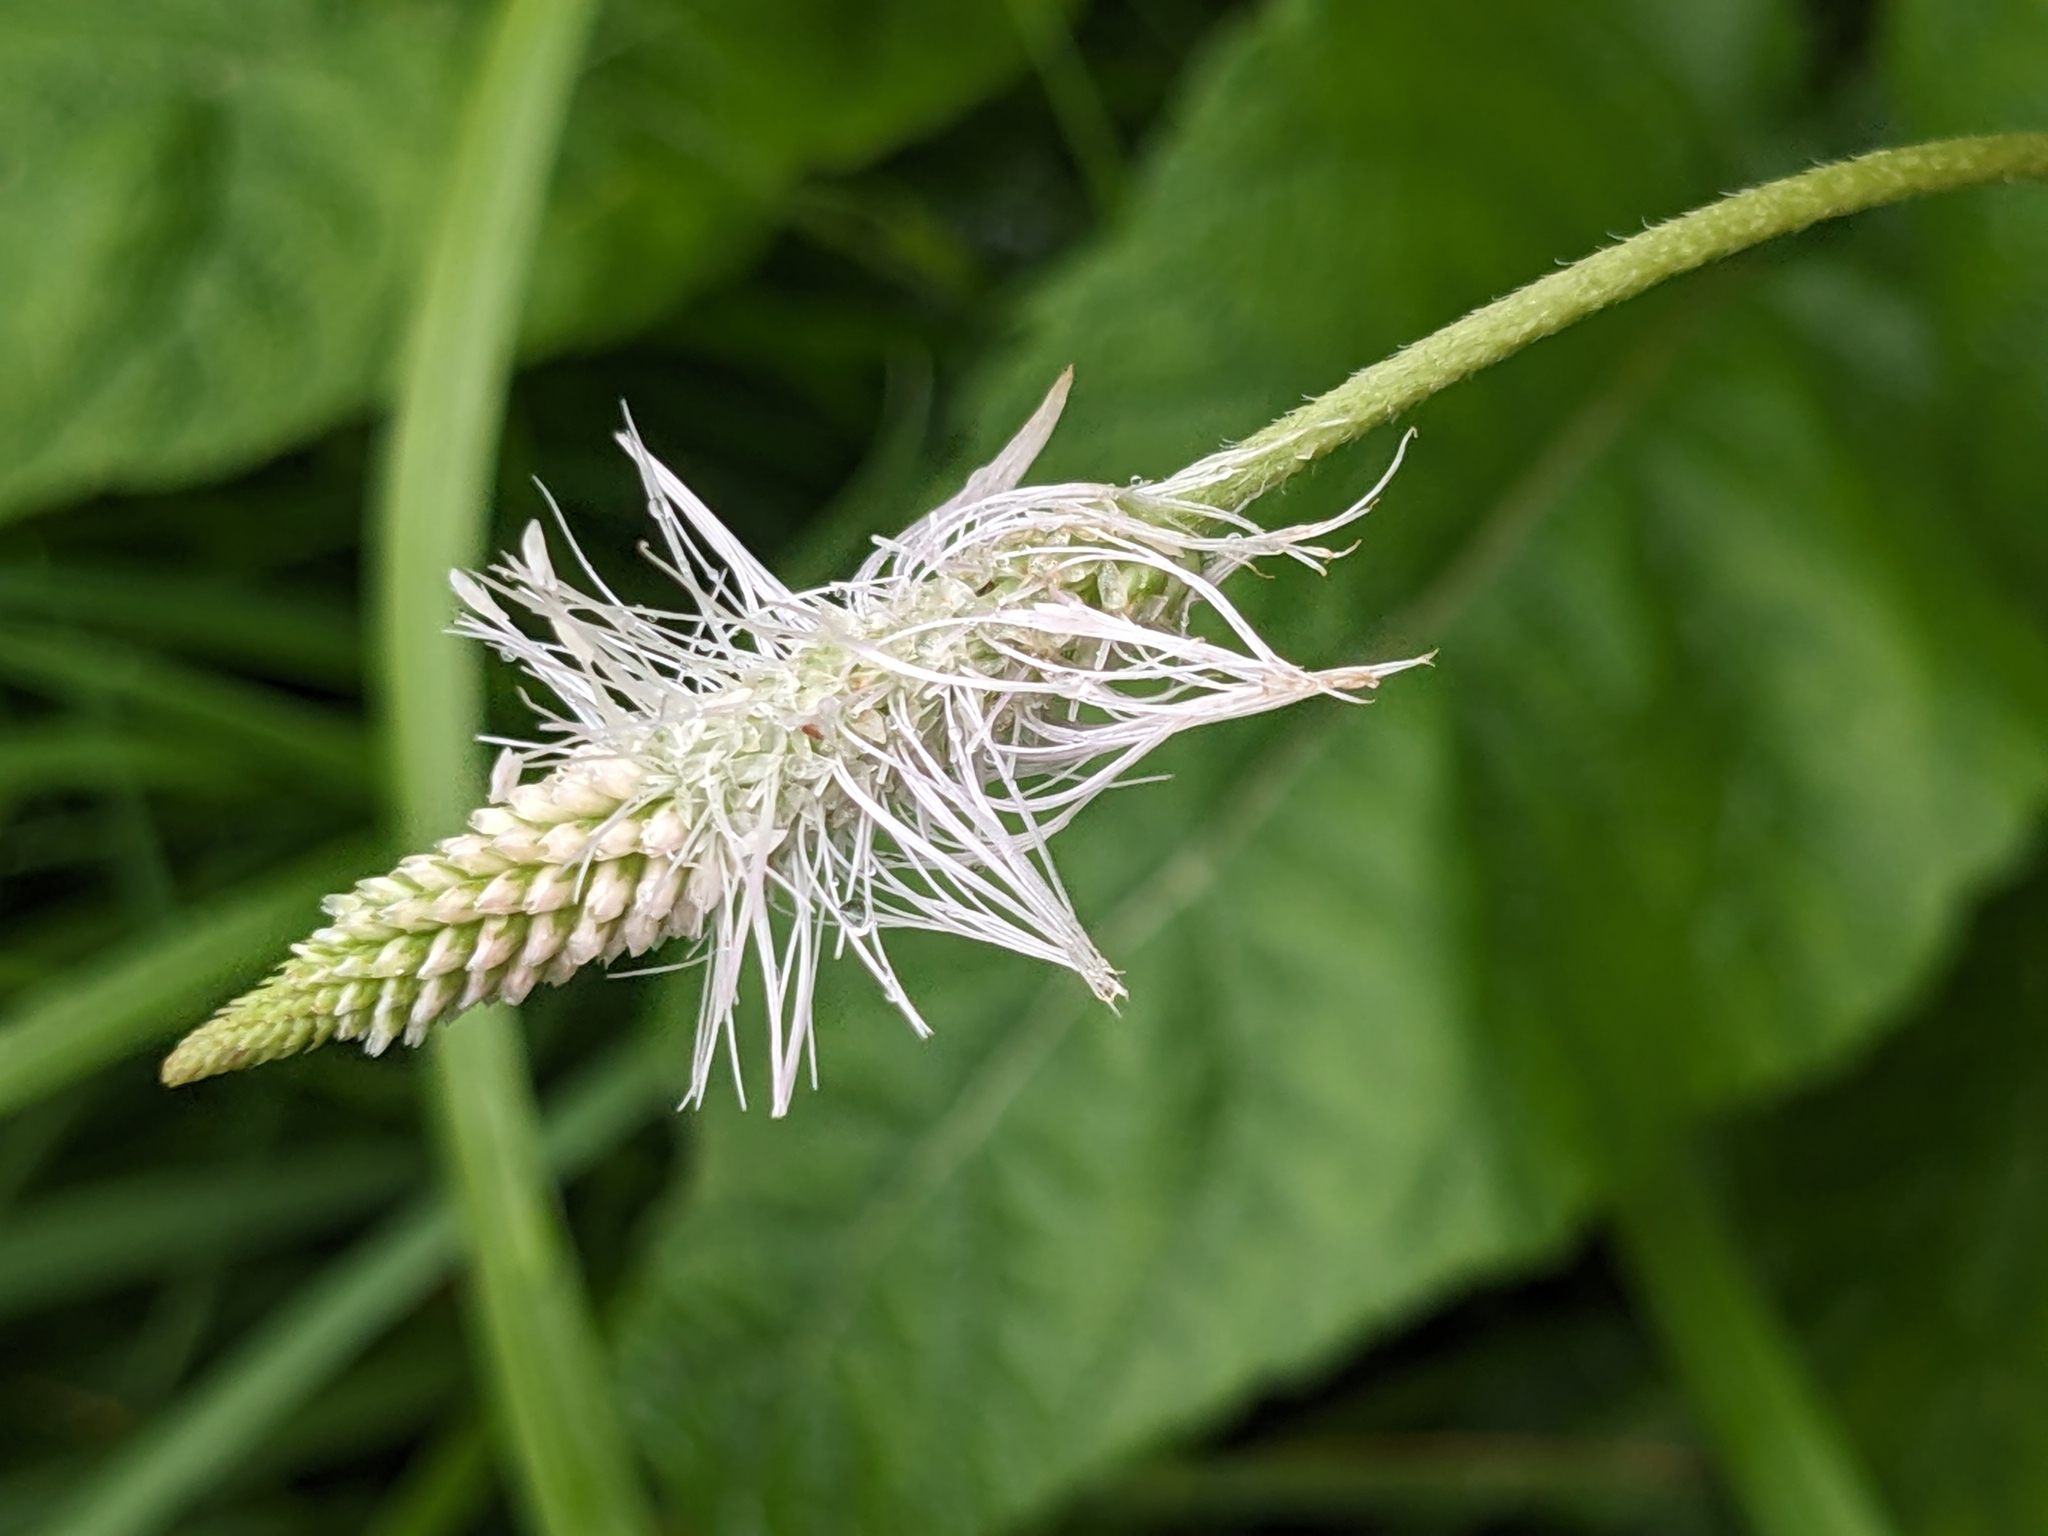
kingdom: Plantae
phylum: Tracheophyta
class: Magnoliopsida
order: Lamiales
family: Plantaginaceae
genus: Plantago
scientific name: Plantago media
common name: Hoary plantain
